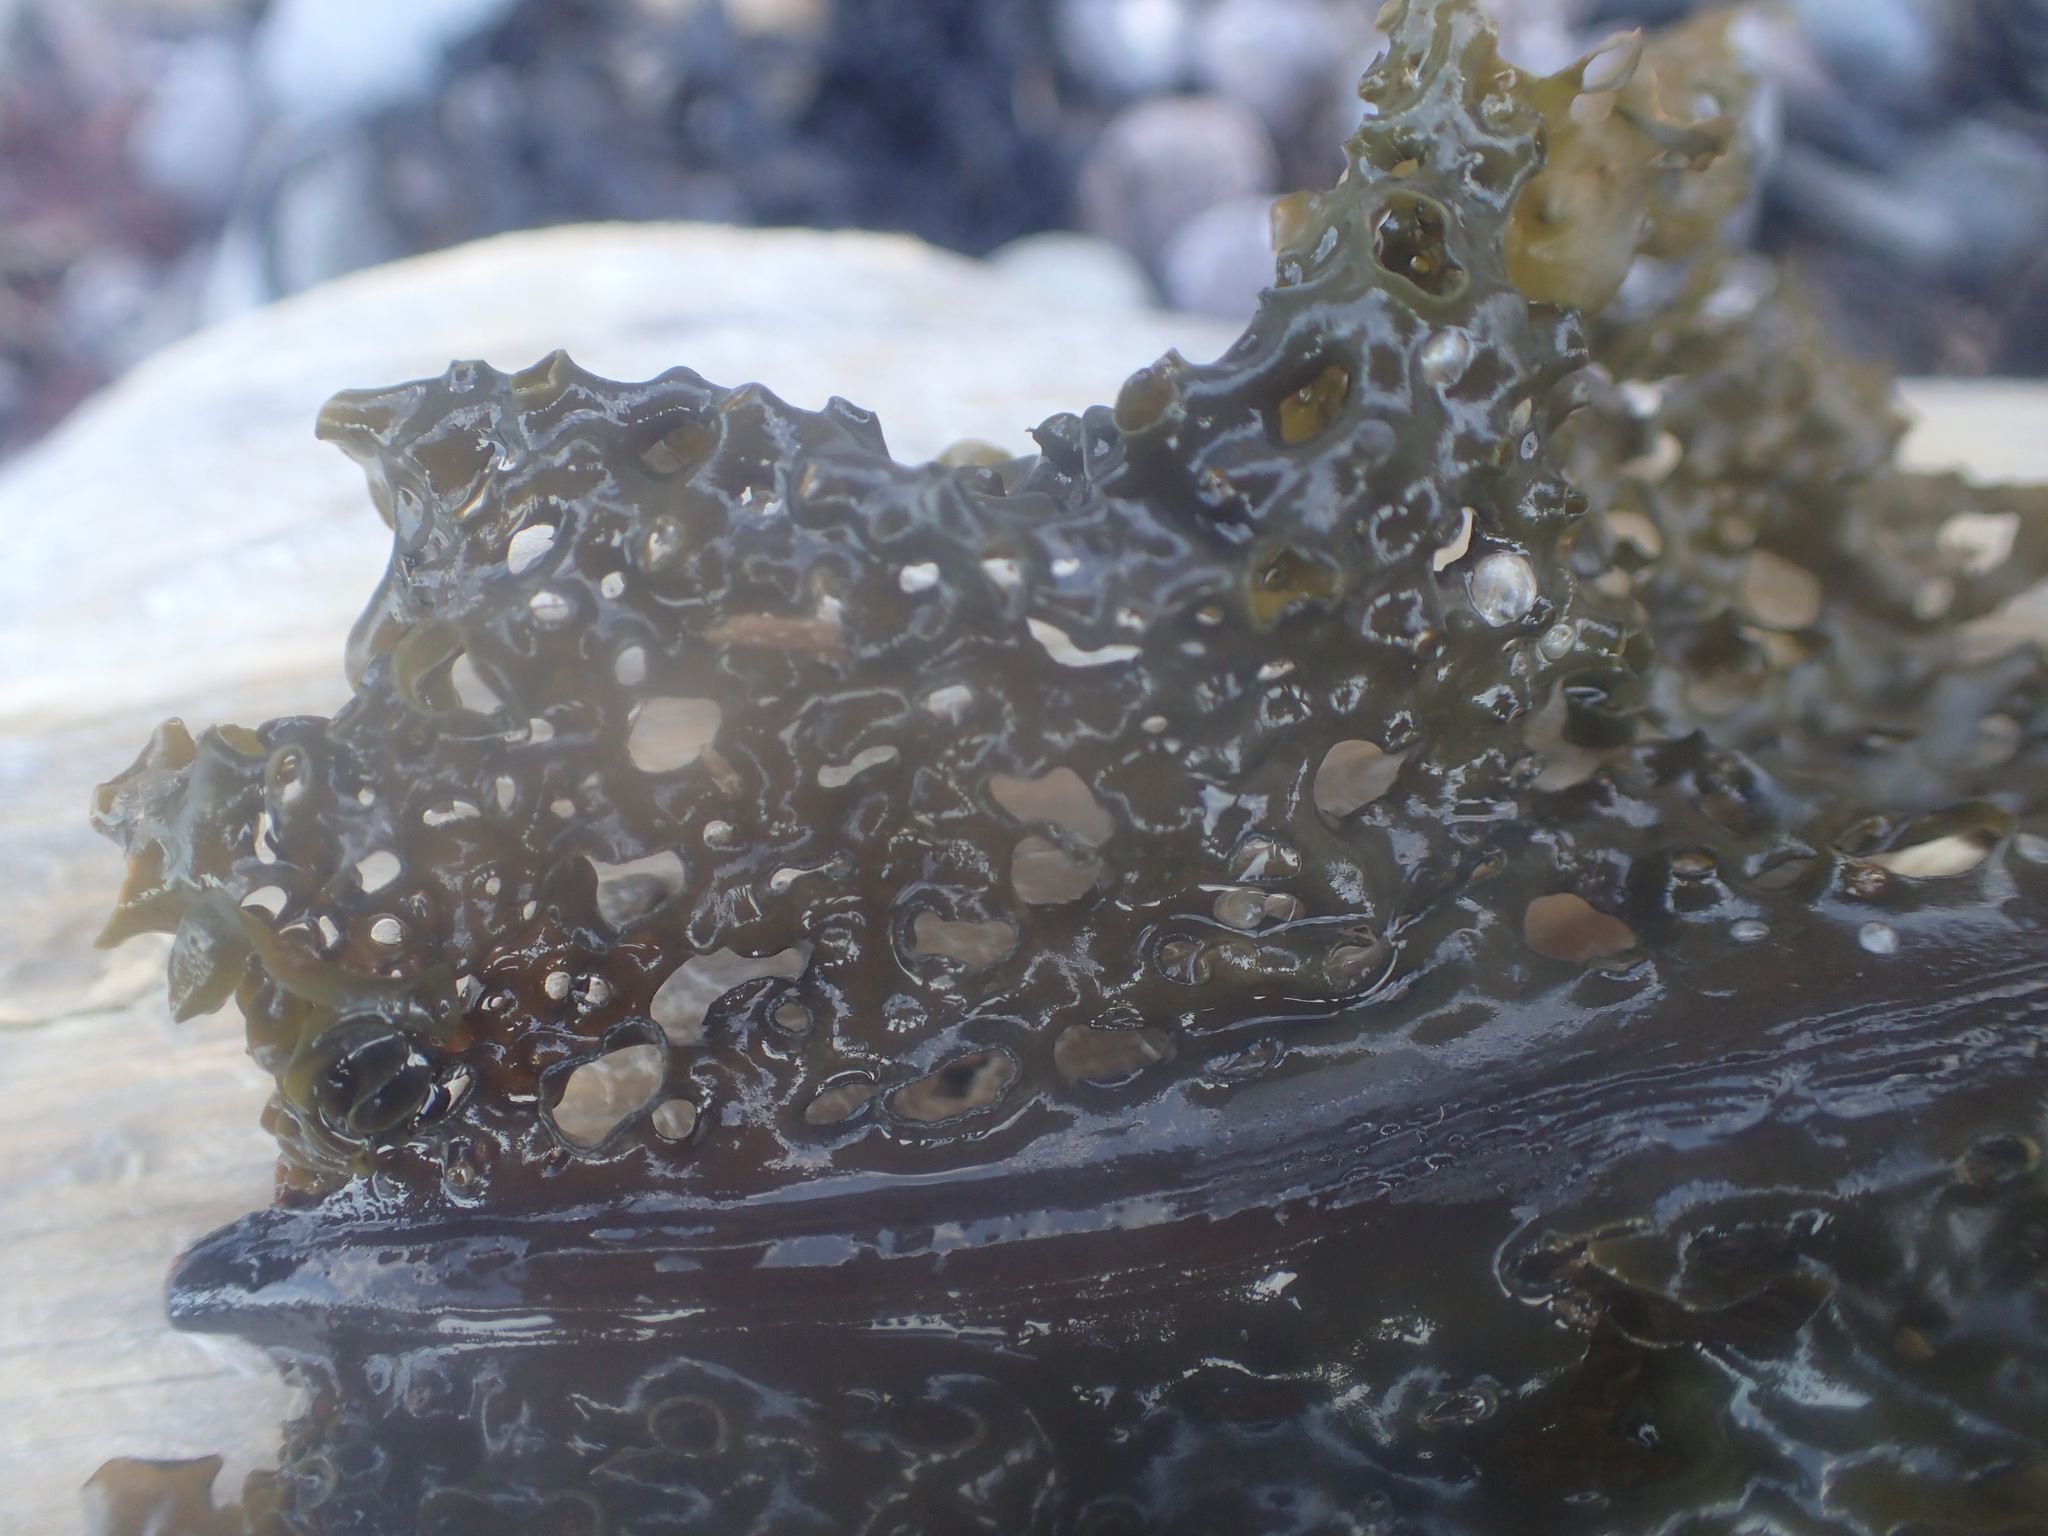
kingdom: Chromista
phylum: Ochrophyta
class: Phaeophyceae
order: Laminariales
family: Costariaceae
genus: Agarum
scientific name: Agarum clathratum
